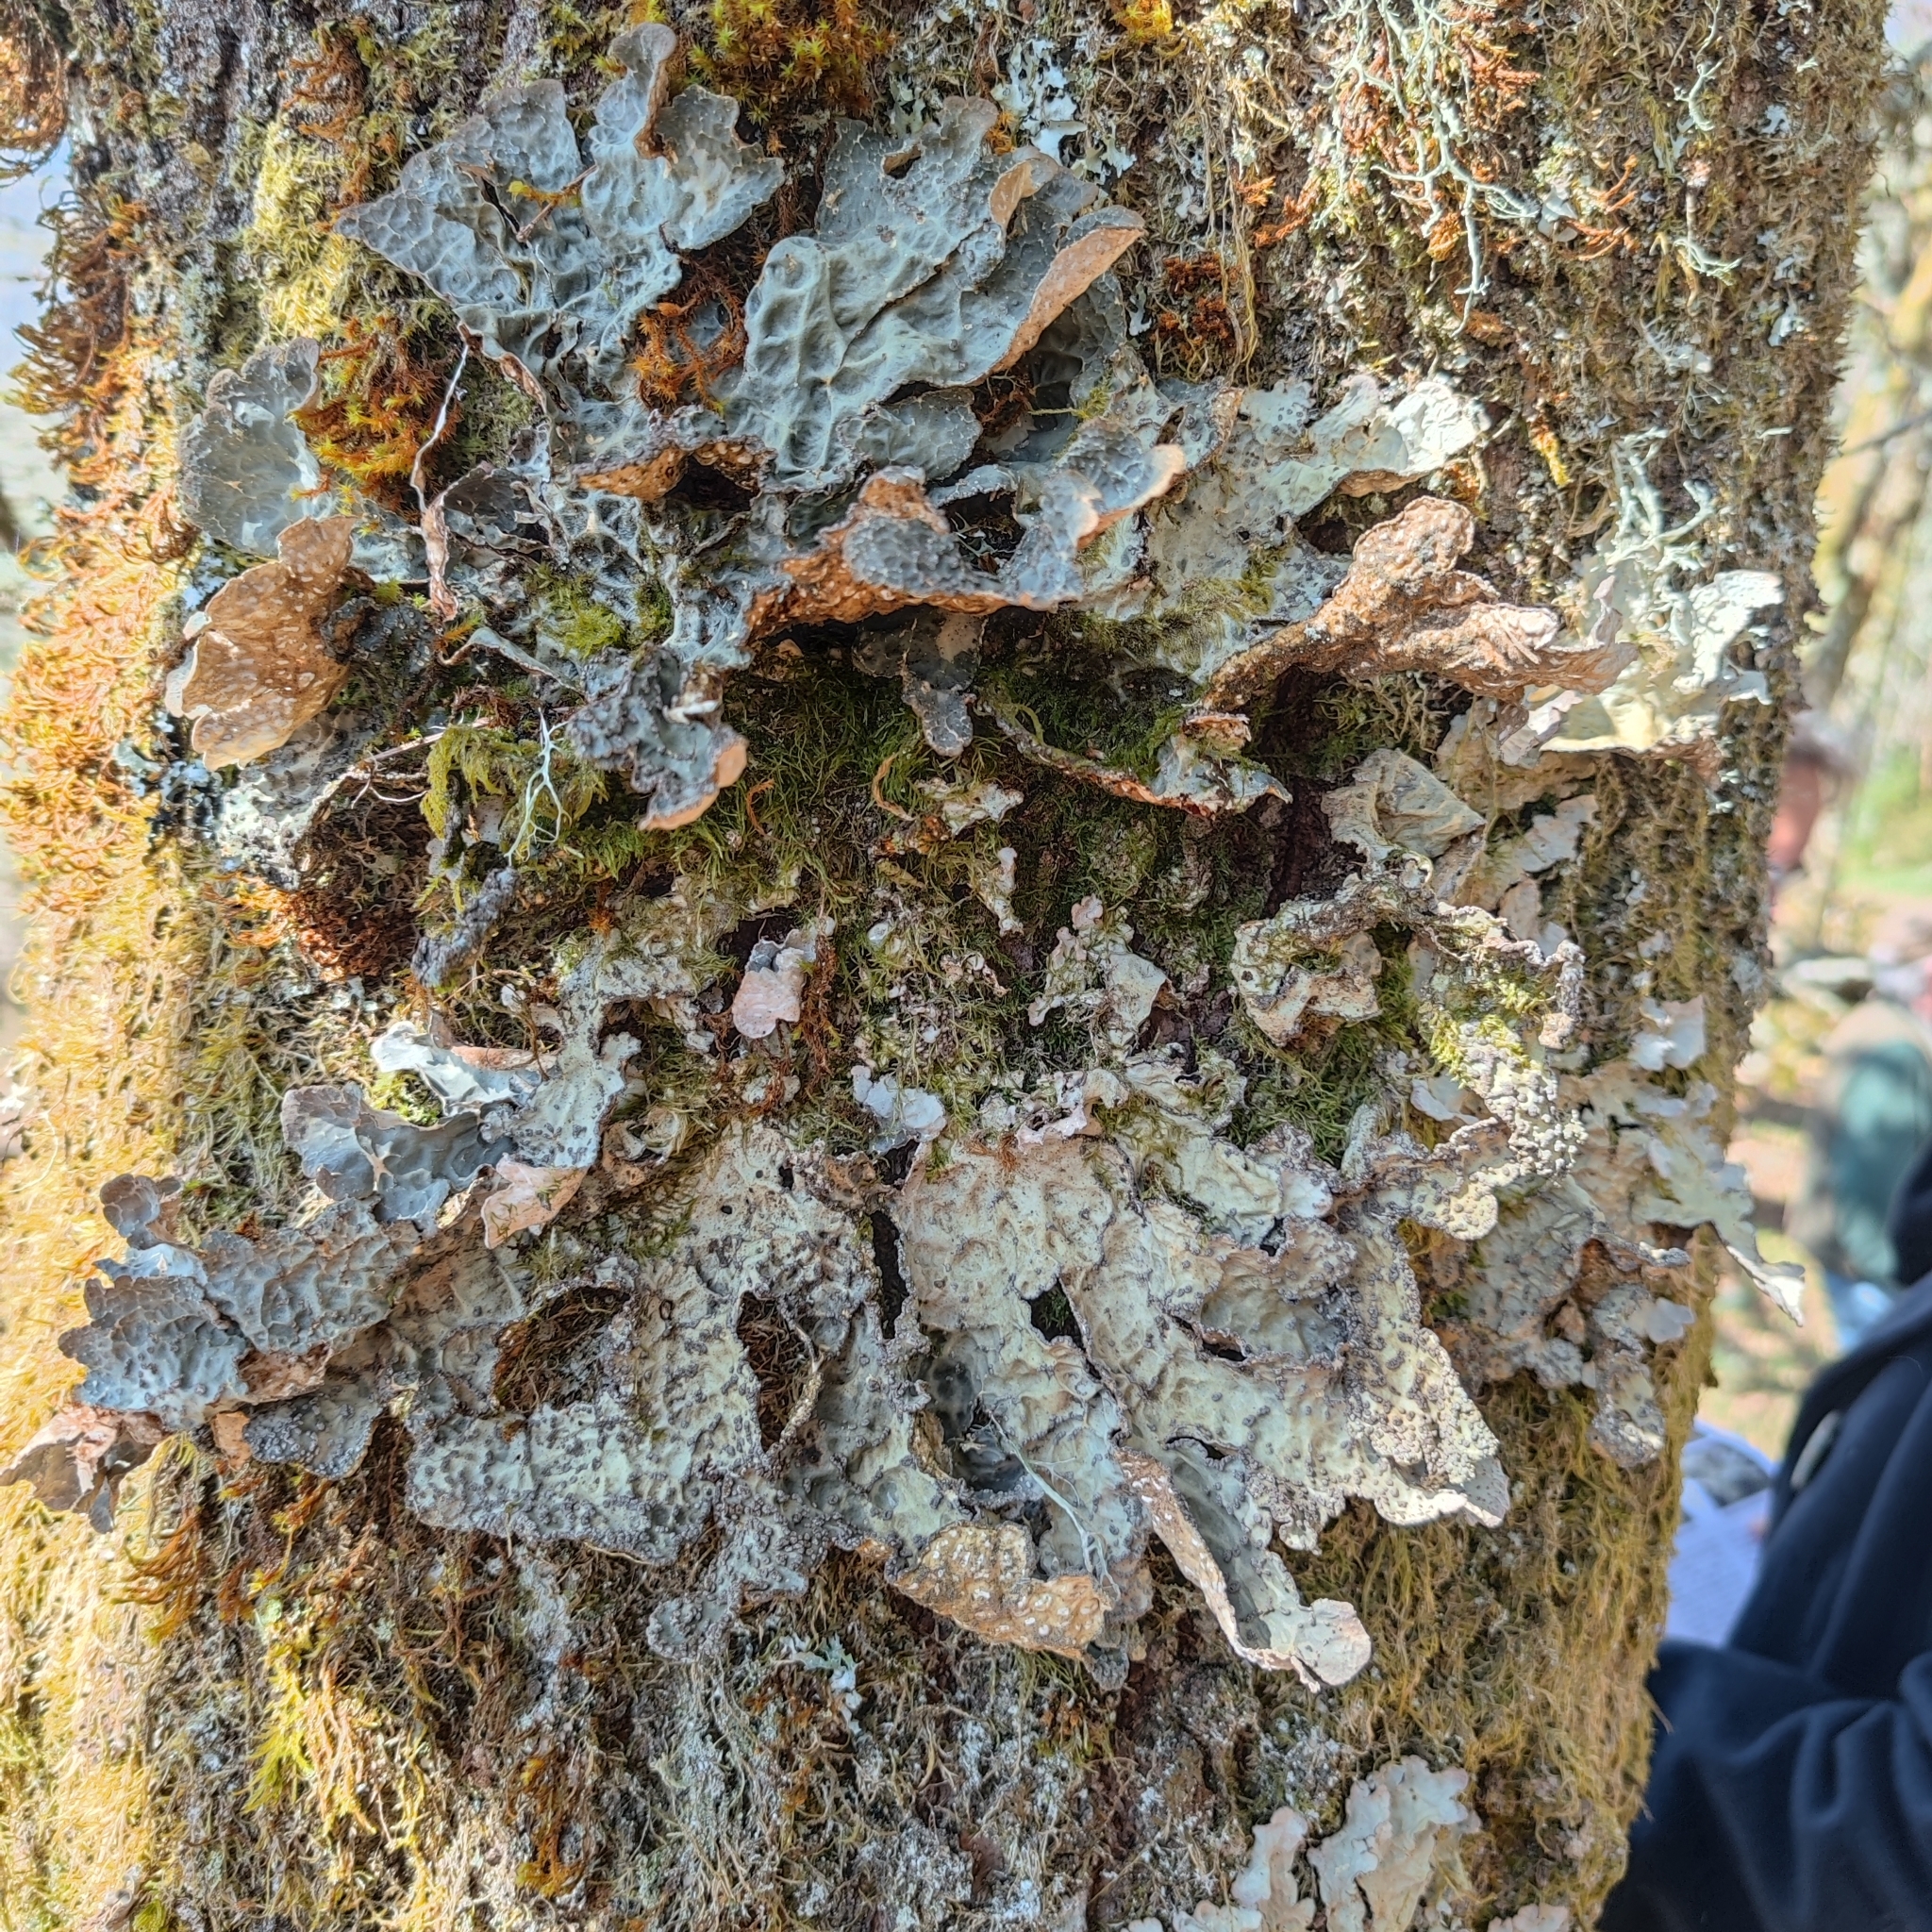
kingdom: Fungi
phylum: Ascomycota
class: Lecanoromycetes
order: Peltigerales
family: Lobariaceae
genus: Lobarina
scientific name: Lobarina scrobiculata
